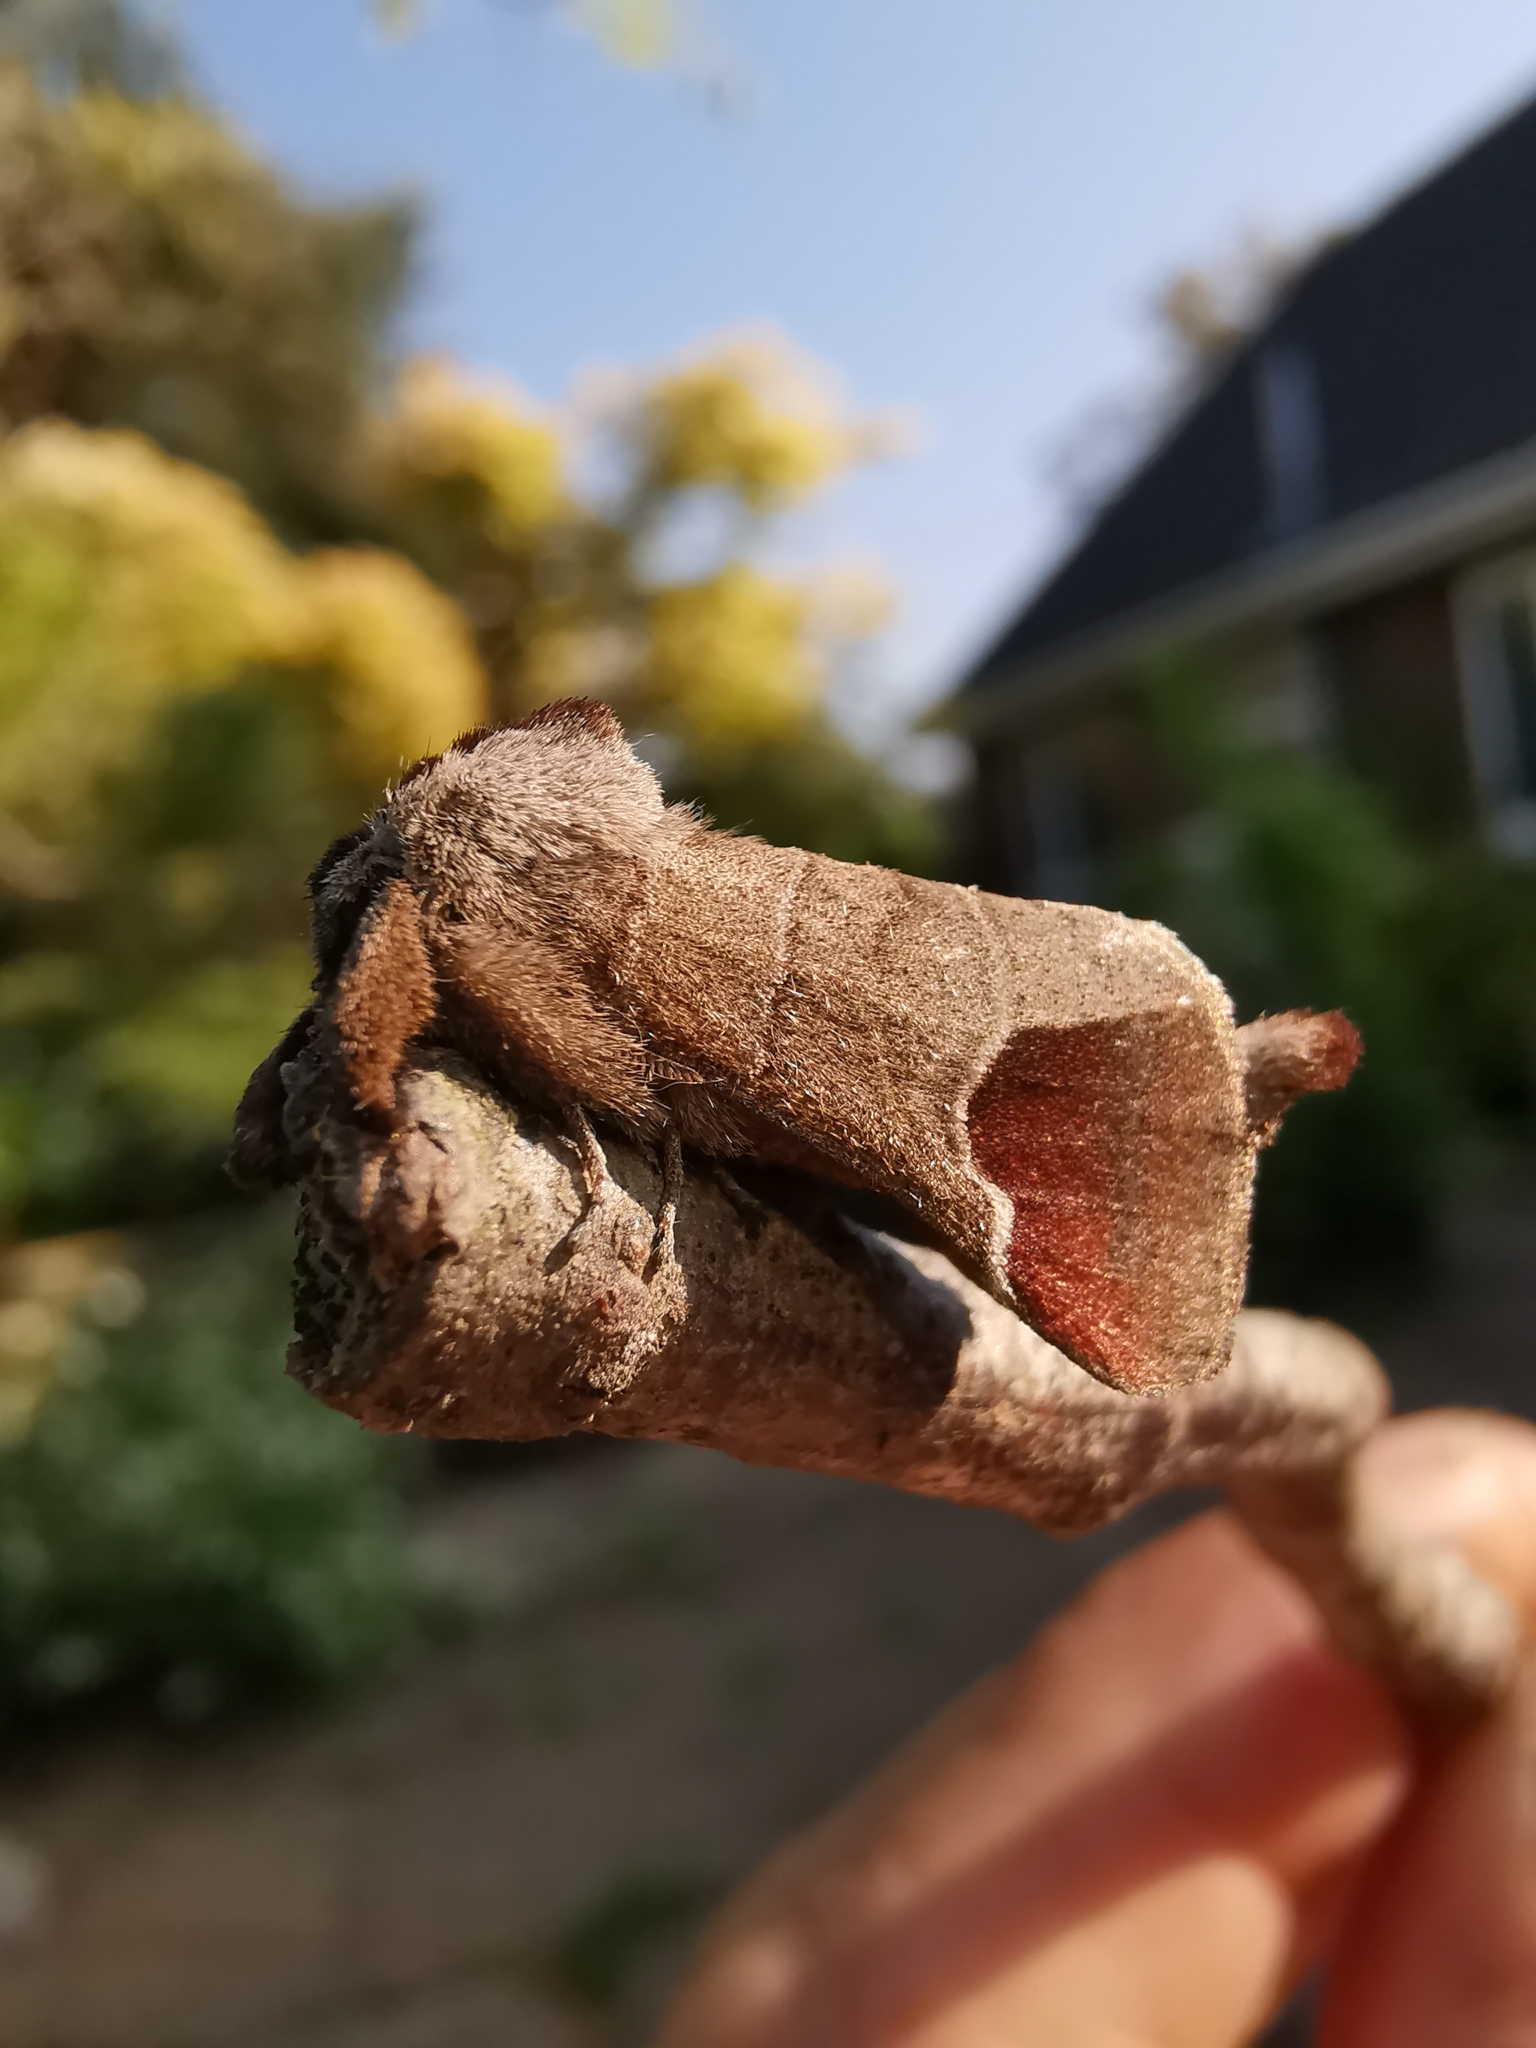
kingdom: Animalia
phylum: Arthropoda
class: Insecta
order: Lepidoptera
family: Notodontidae
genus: Clostera
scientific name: Clostera curtula
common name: Chocolate-tip
